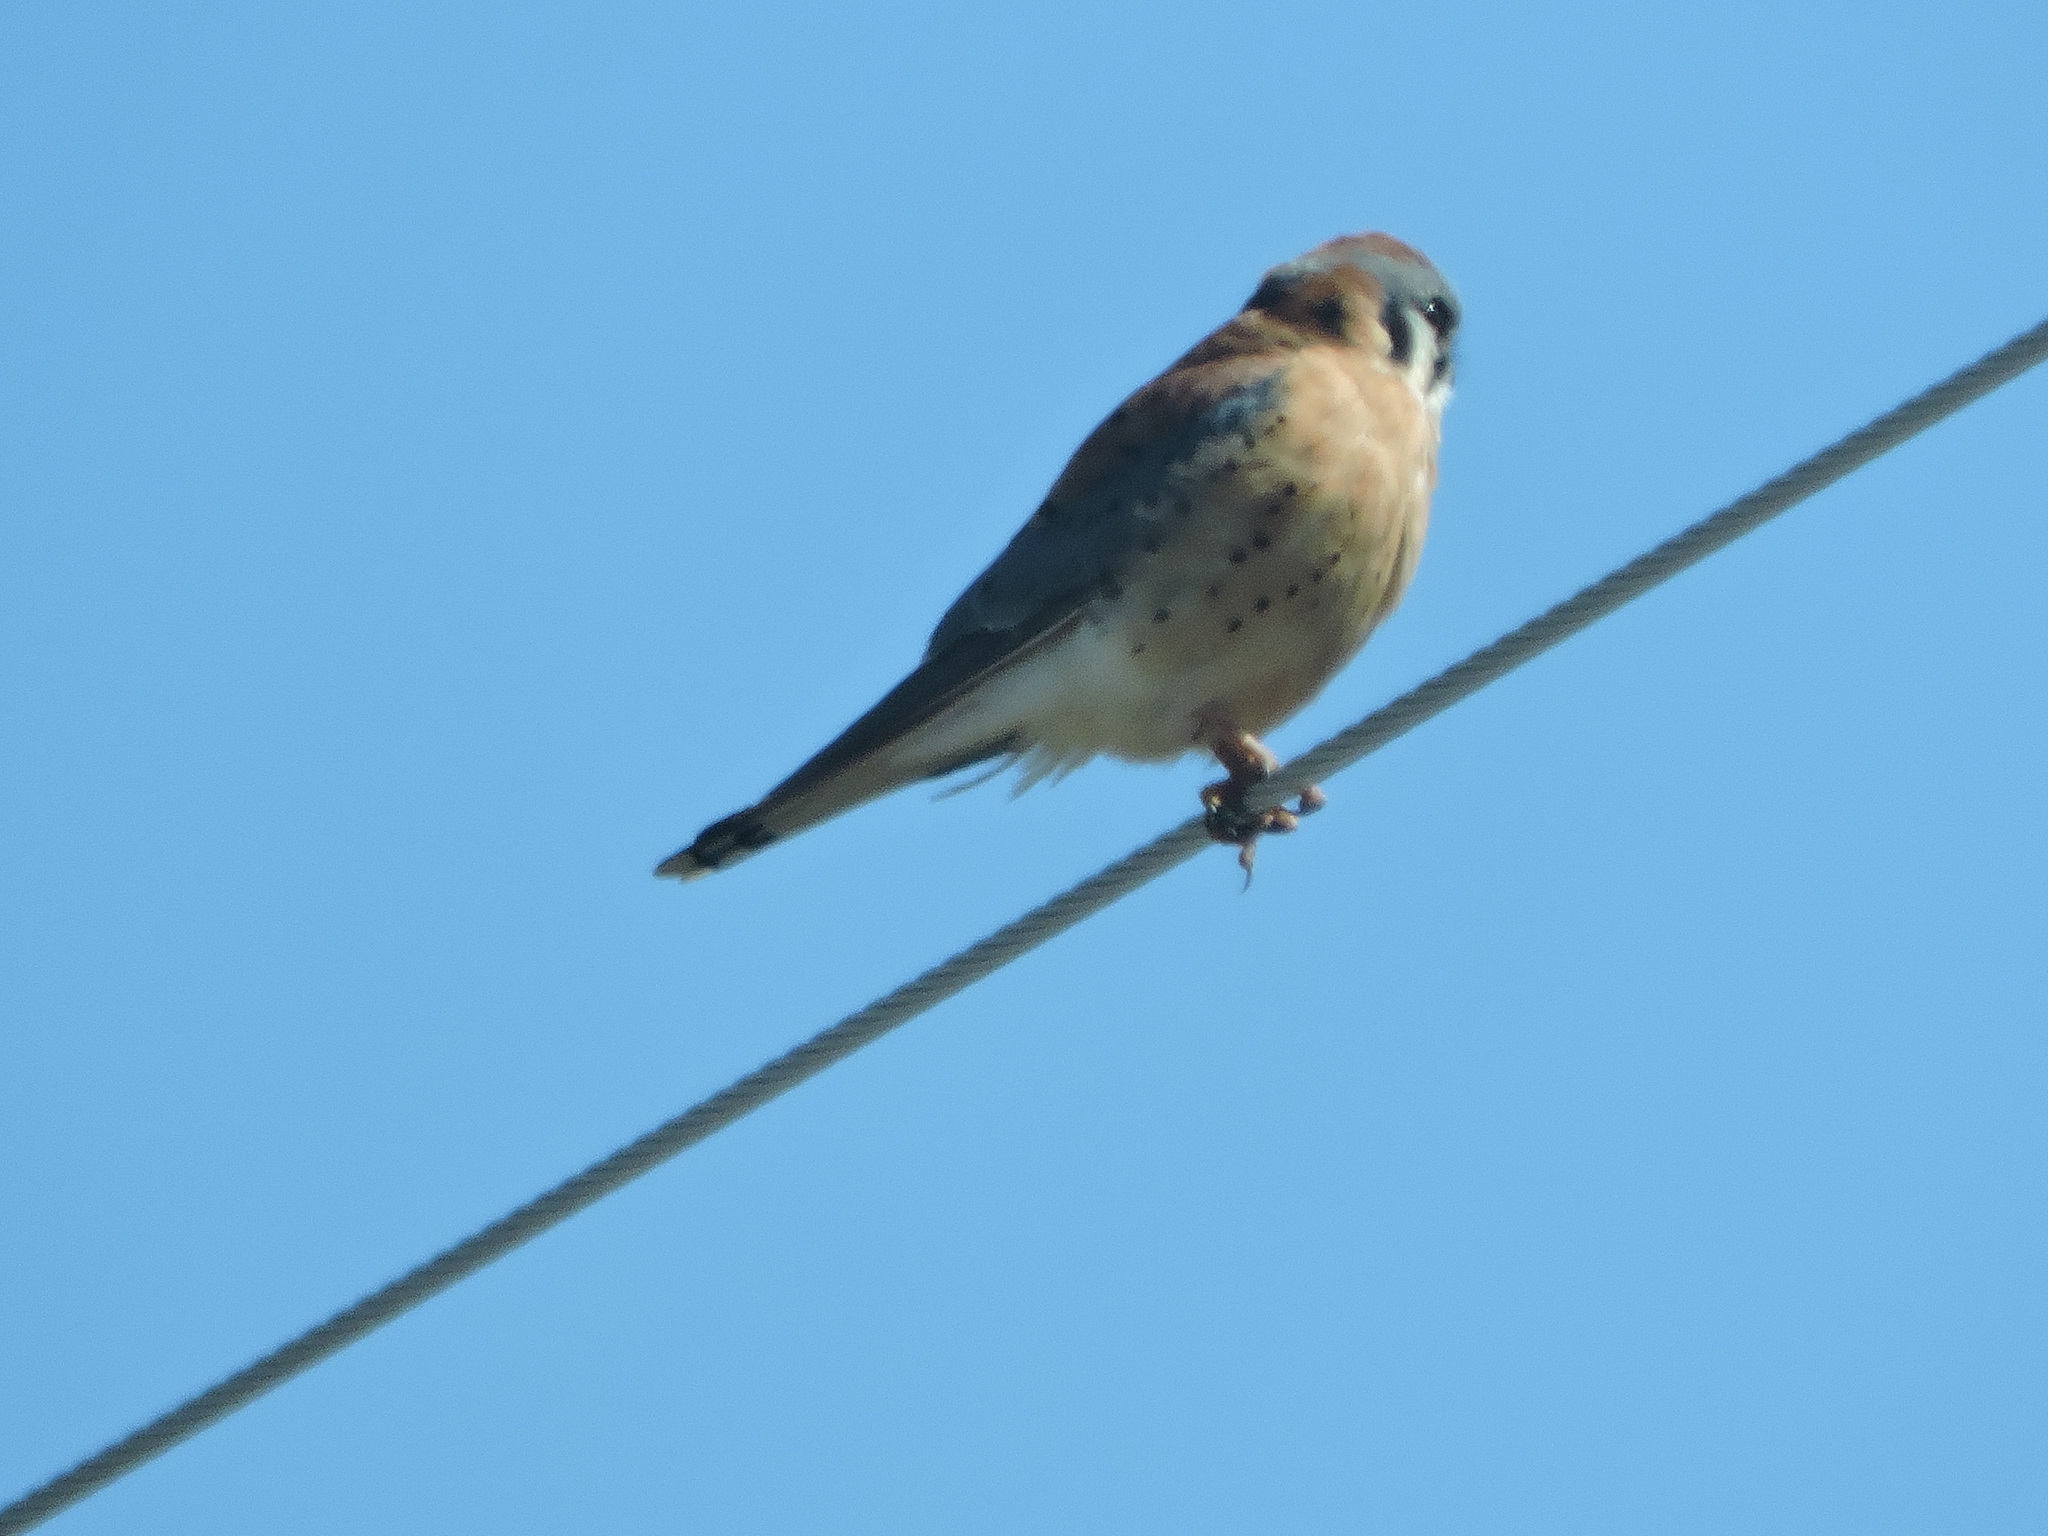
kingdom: Animalia
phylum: Chordata
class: Aves
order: Falconiformes
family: Falconidae
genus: Falco
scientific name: Falco sparverius
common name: American kestrel
